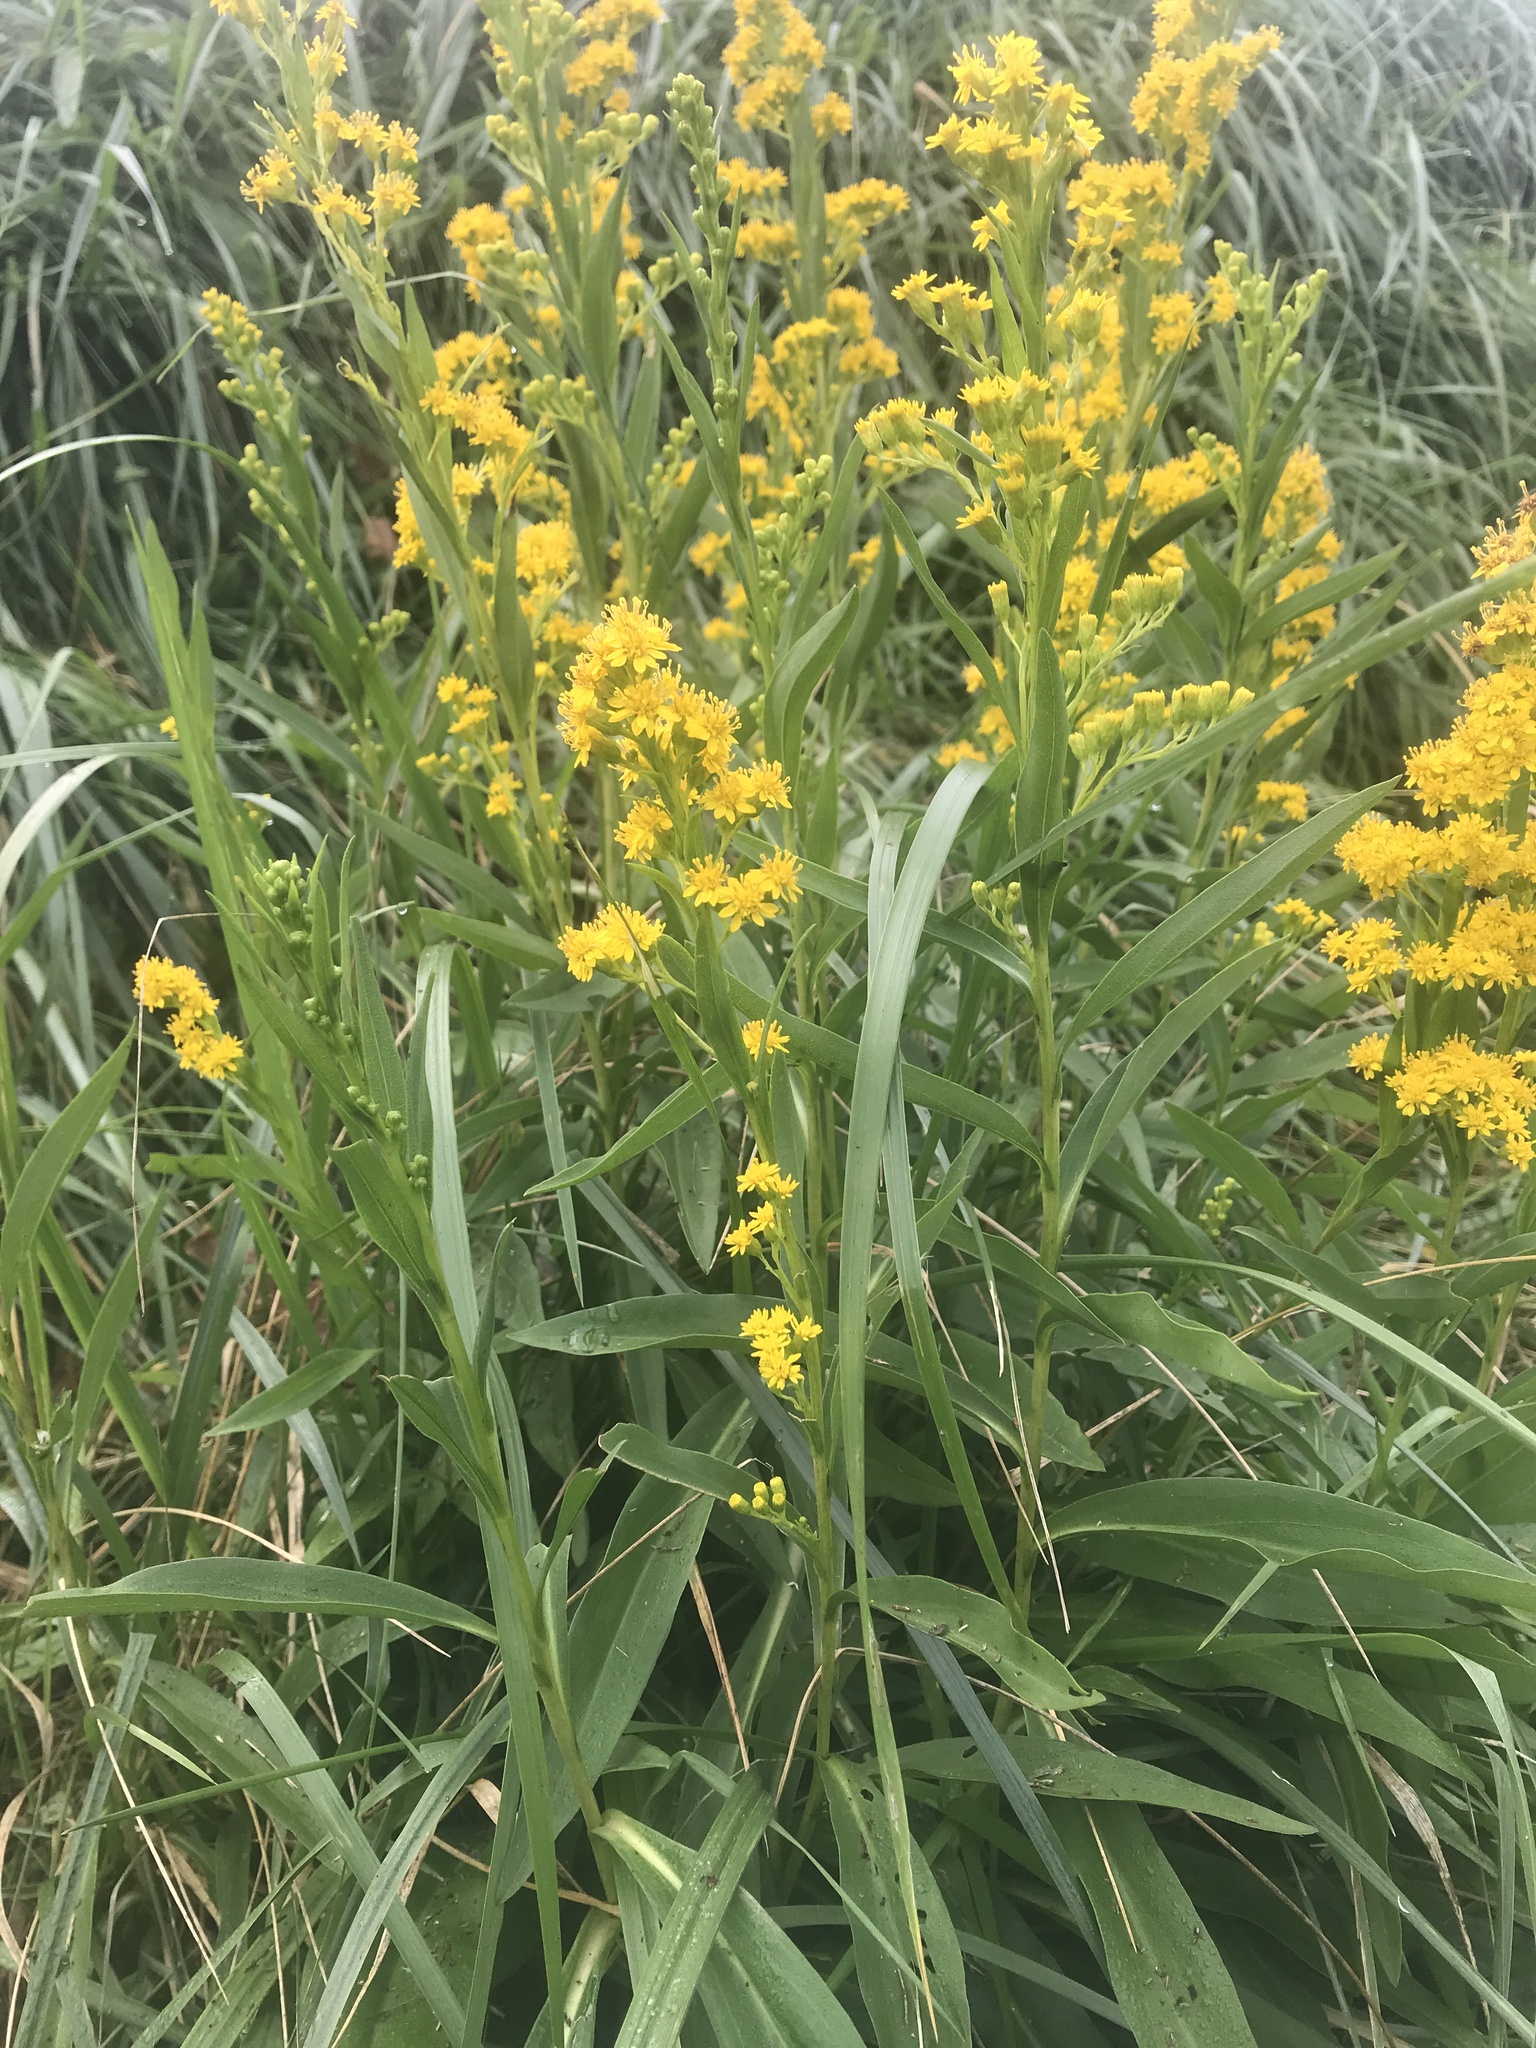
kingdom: Plantae
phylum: Tracheophyta
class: Magnoliopsida
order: Asterales
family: Asteraceae
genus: Solidago
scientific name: Solidago sempervirens
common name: Salt-marsh goldenrod
